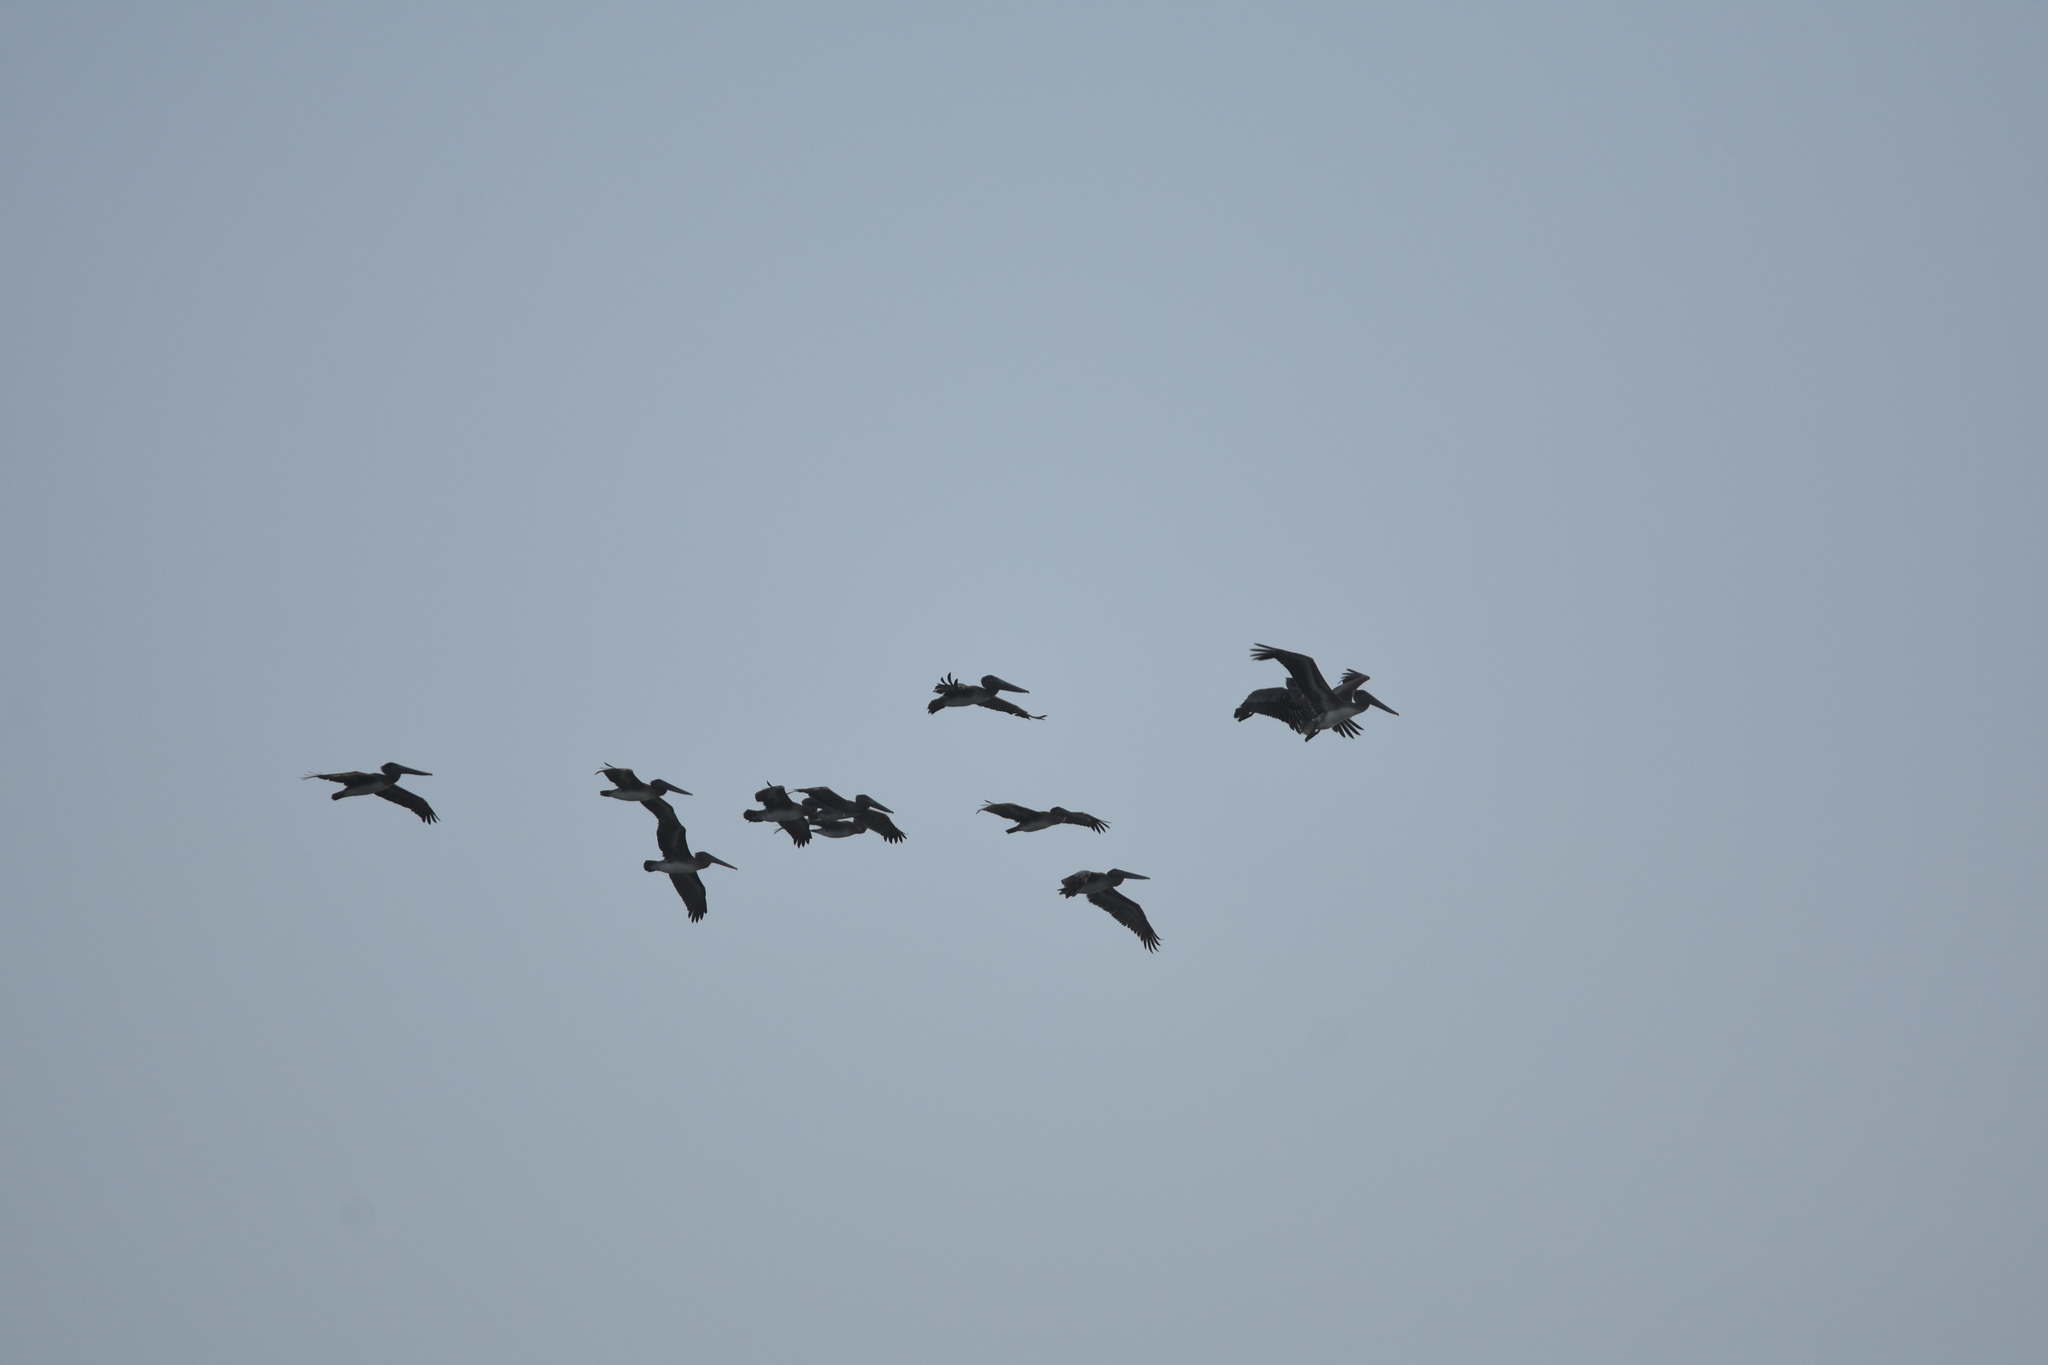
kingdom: Animalia
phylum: Chordata
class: Aves
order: Pelecaniformes
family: Pelecanidae
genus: Pelecanus
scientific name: Pelecanus occidentalis
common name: Brown pelican
